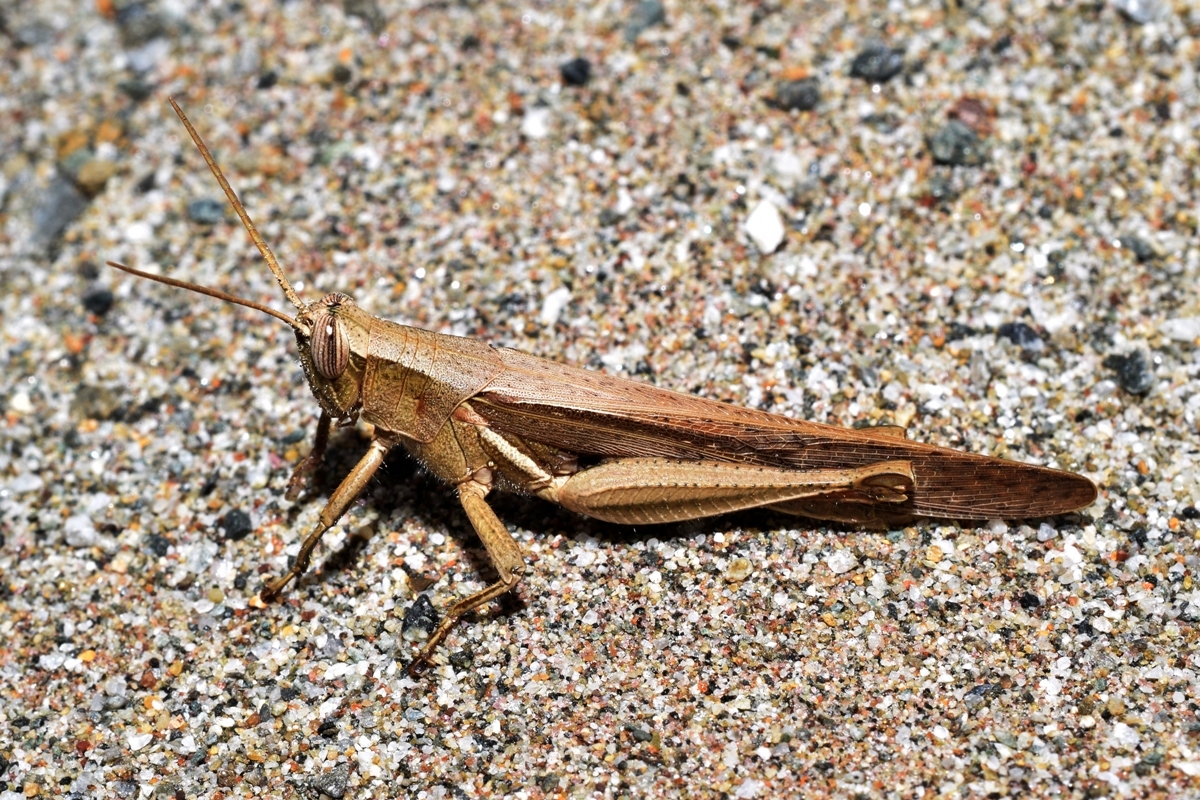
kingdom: Animalia
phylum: Arthropoda
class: Insecta
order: Orthoptera
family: Acrididae
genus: Stenocatantops
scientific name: Stenocatantops splendens
